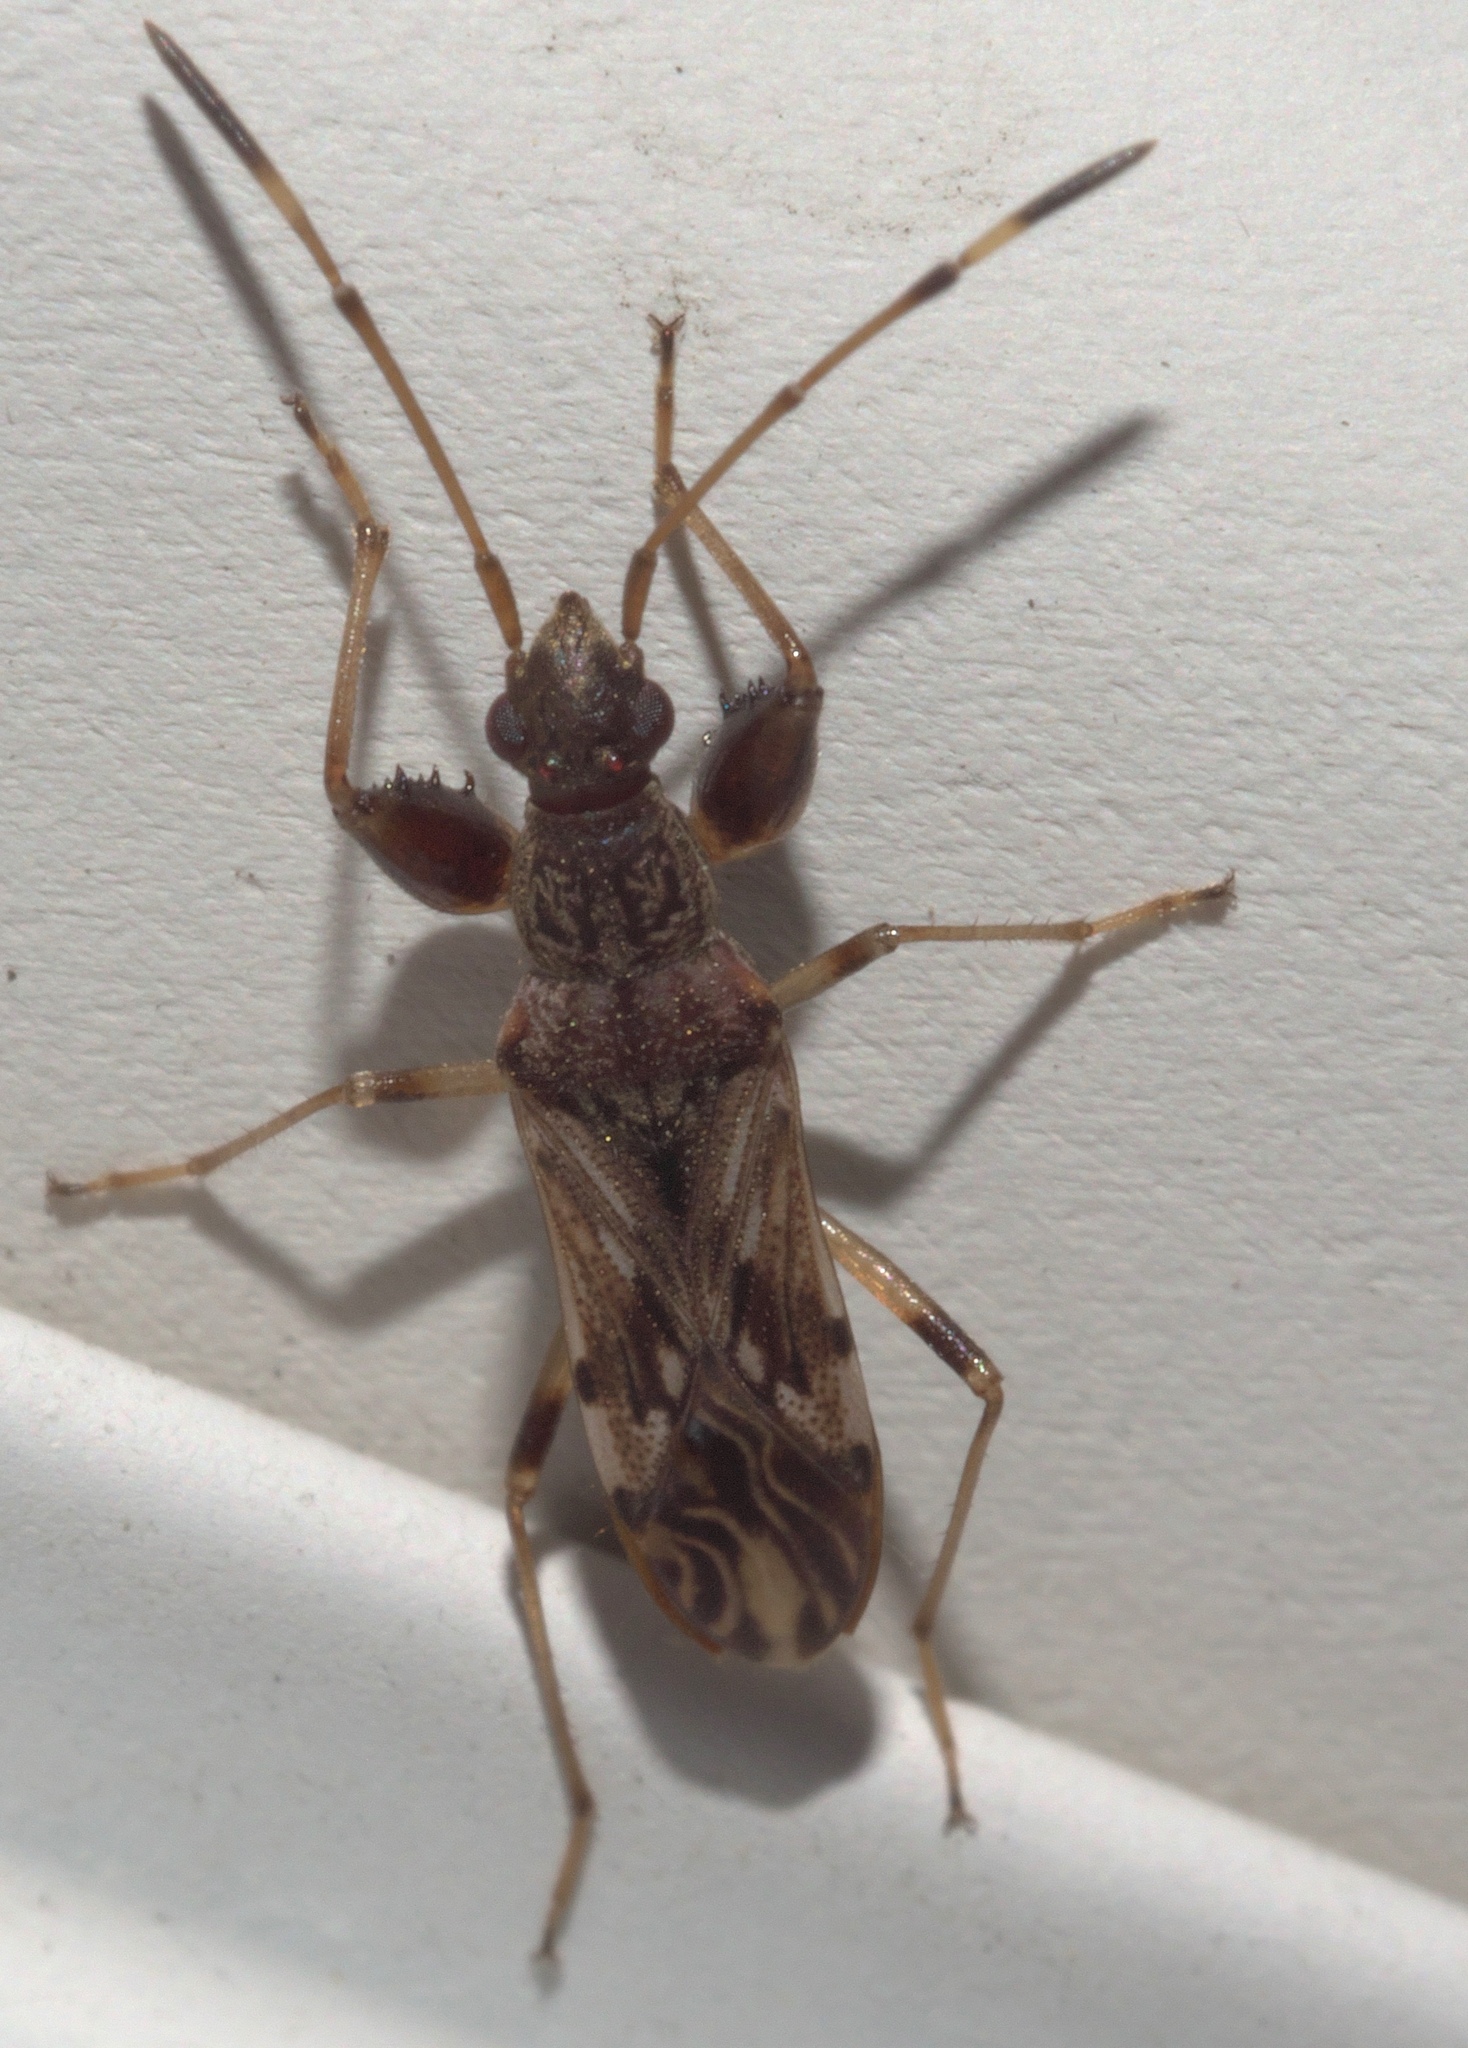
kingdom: Animalia
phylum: Arthropoda
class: Insecta
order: Hemiptera
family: Rhyparochromidae
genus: Neopamera
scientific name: Neopamera albocincta
